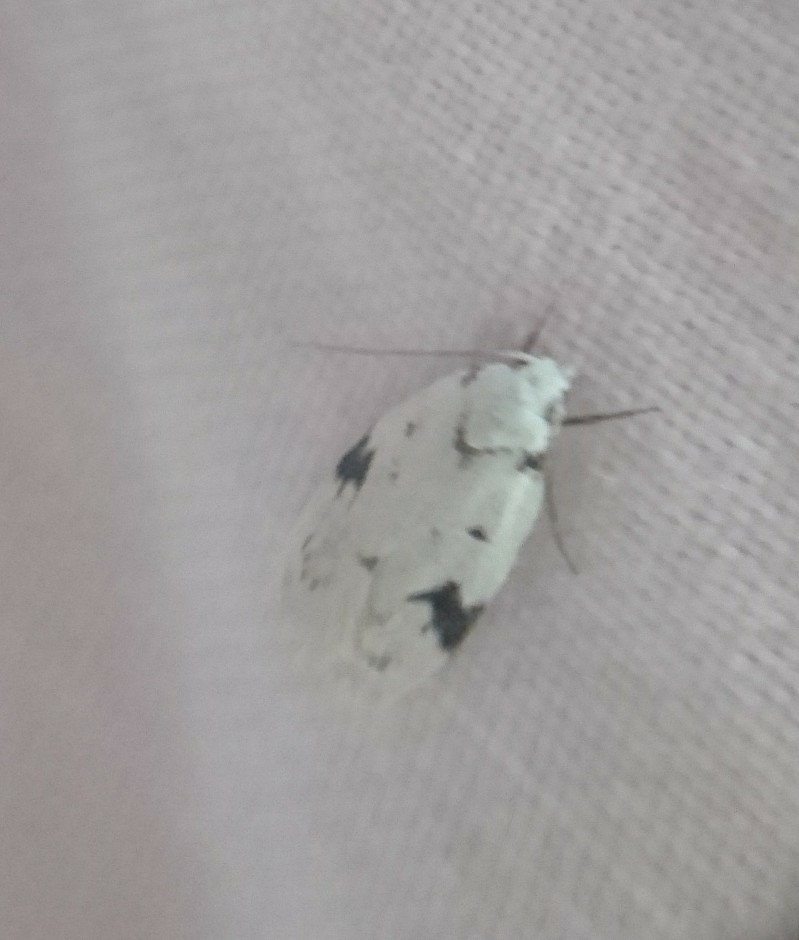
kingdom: Animalia
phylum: Arthropoda
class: Insecta
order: Lepidoptera
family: Oecophoridae
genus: Inga
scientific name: Inga sparsiciliella
